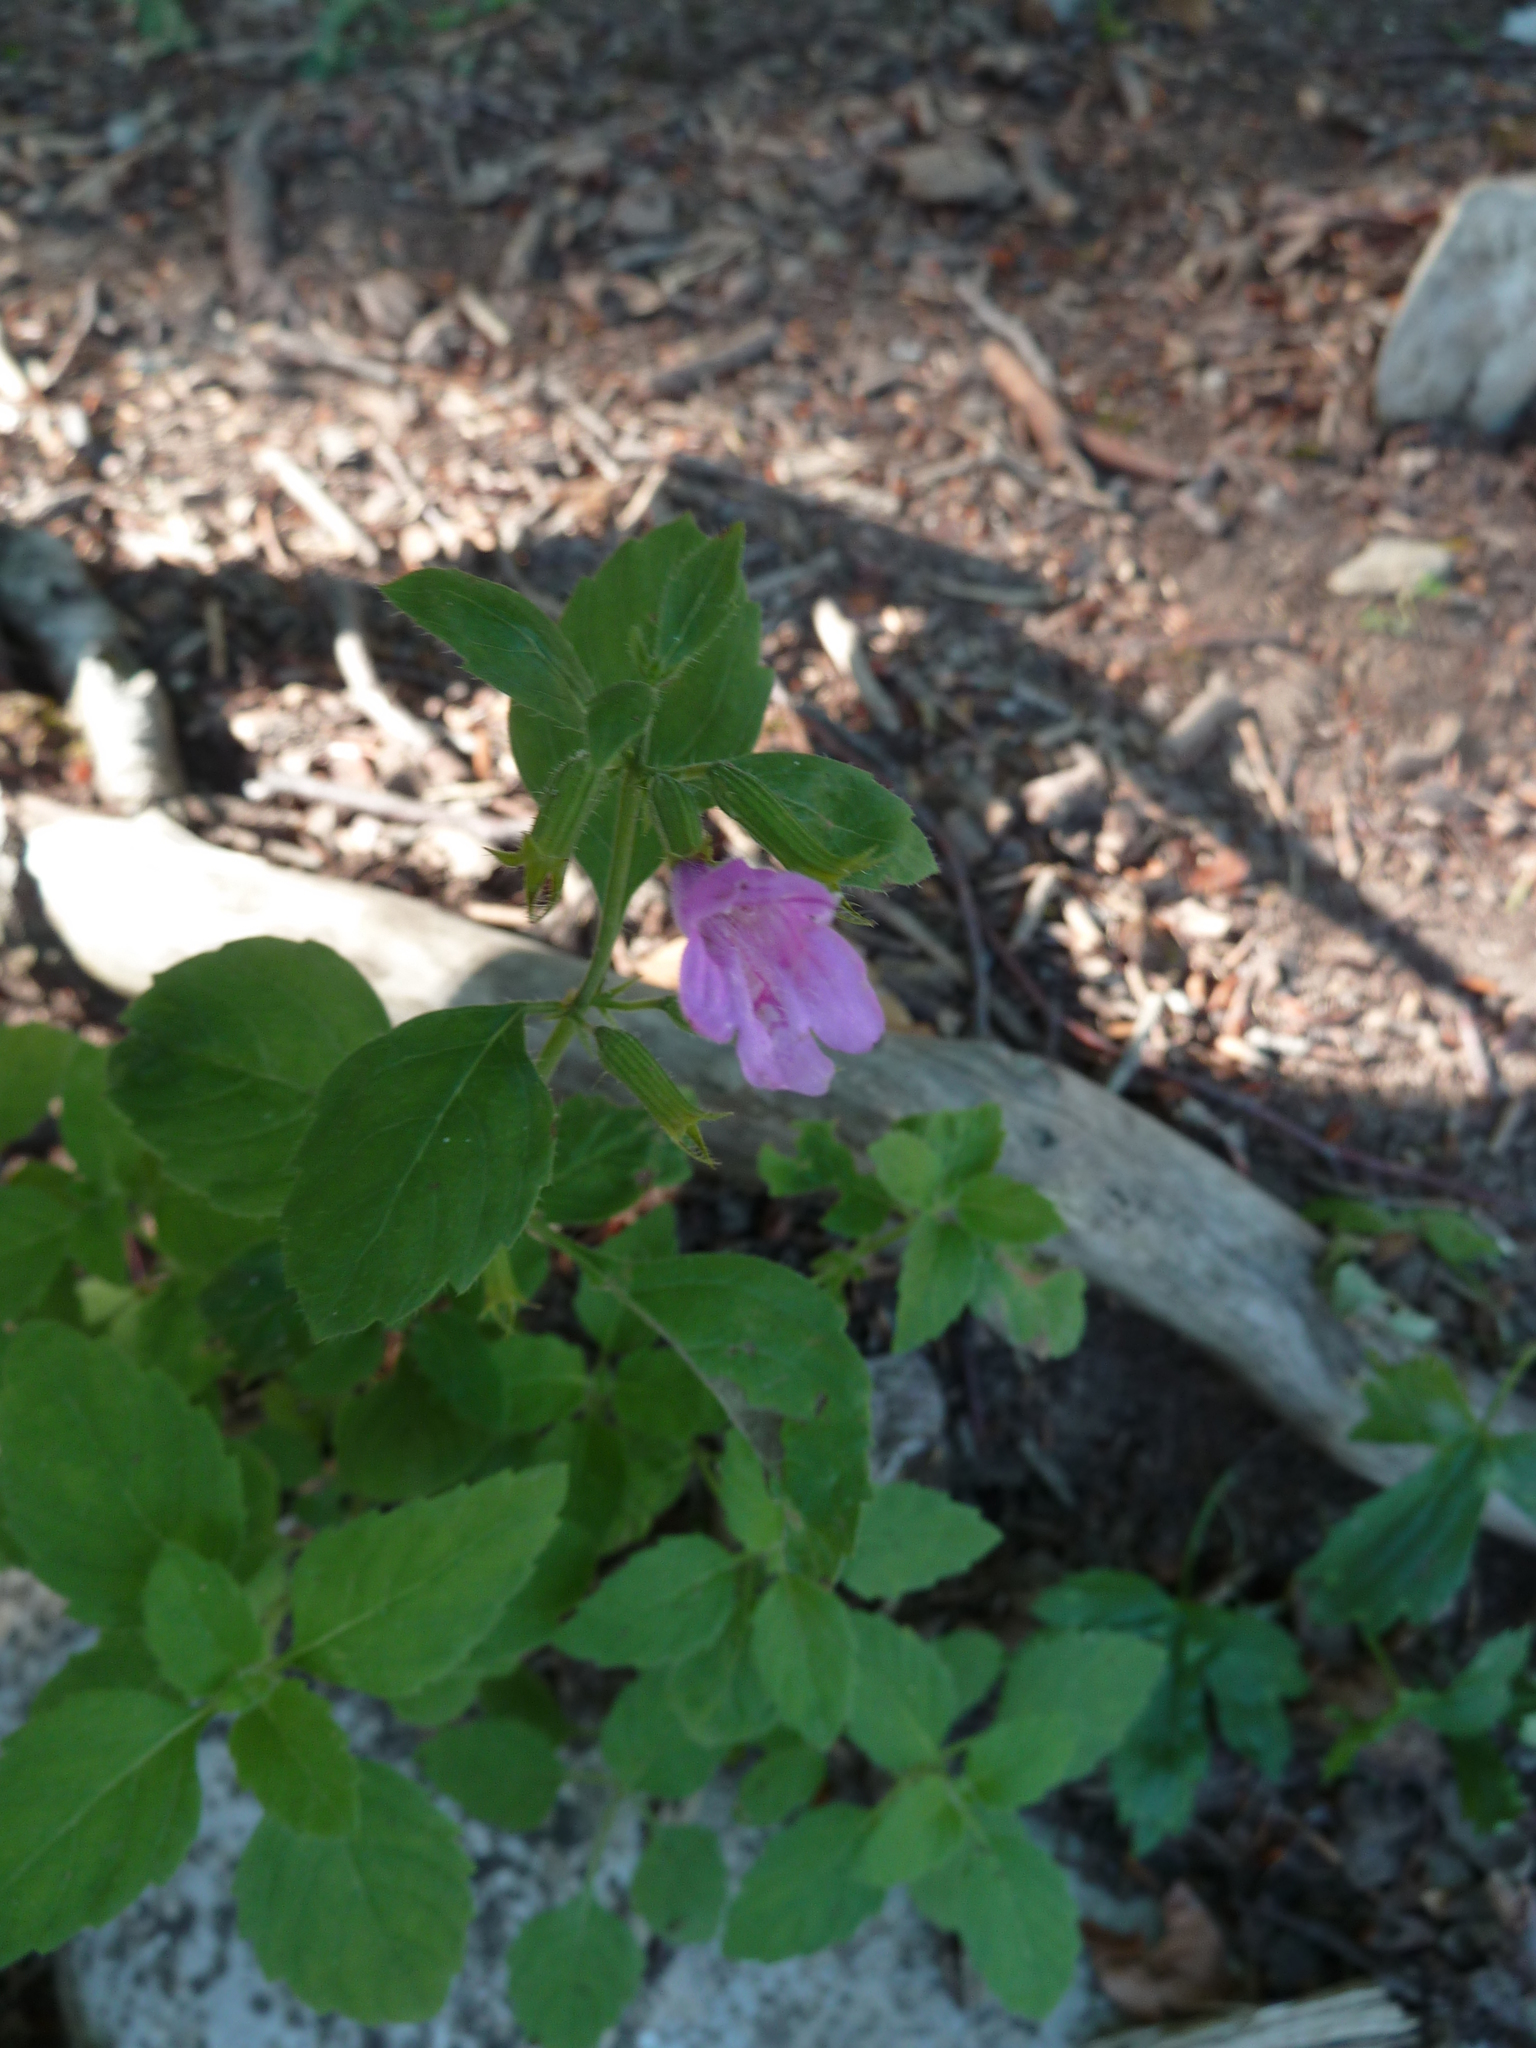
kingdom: Plantae
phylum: Tracheophyta
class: Magnoliopsida
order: Lamiales
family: Lamiaceae
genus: Clinopodium
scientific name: Clinopodium grandiflorum
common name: Greater calamint
